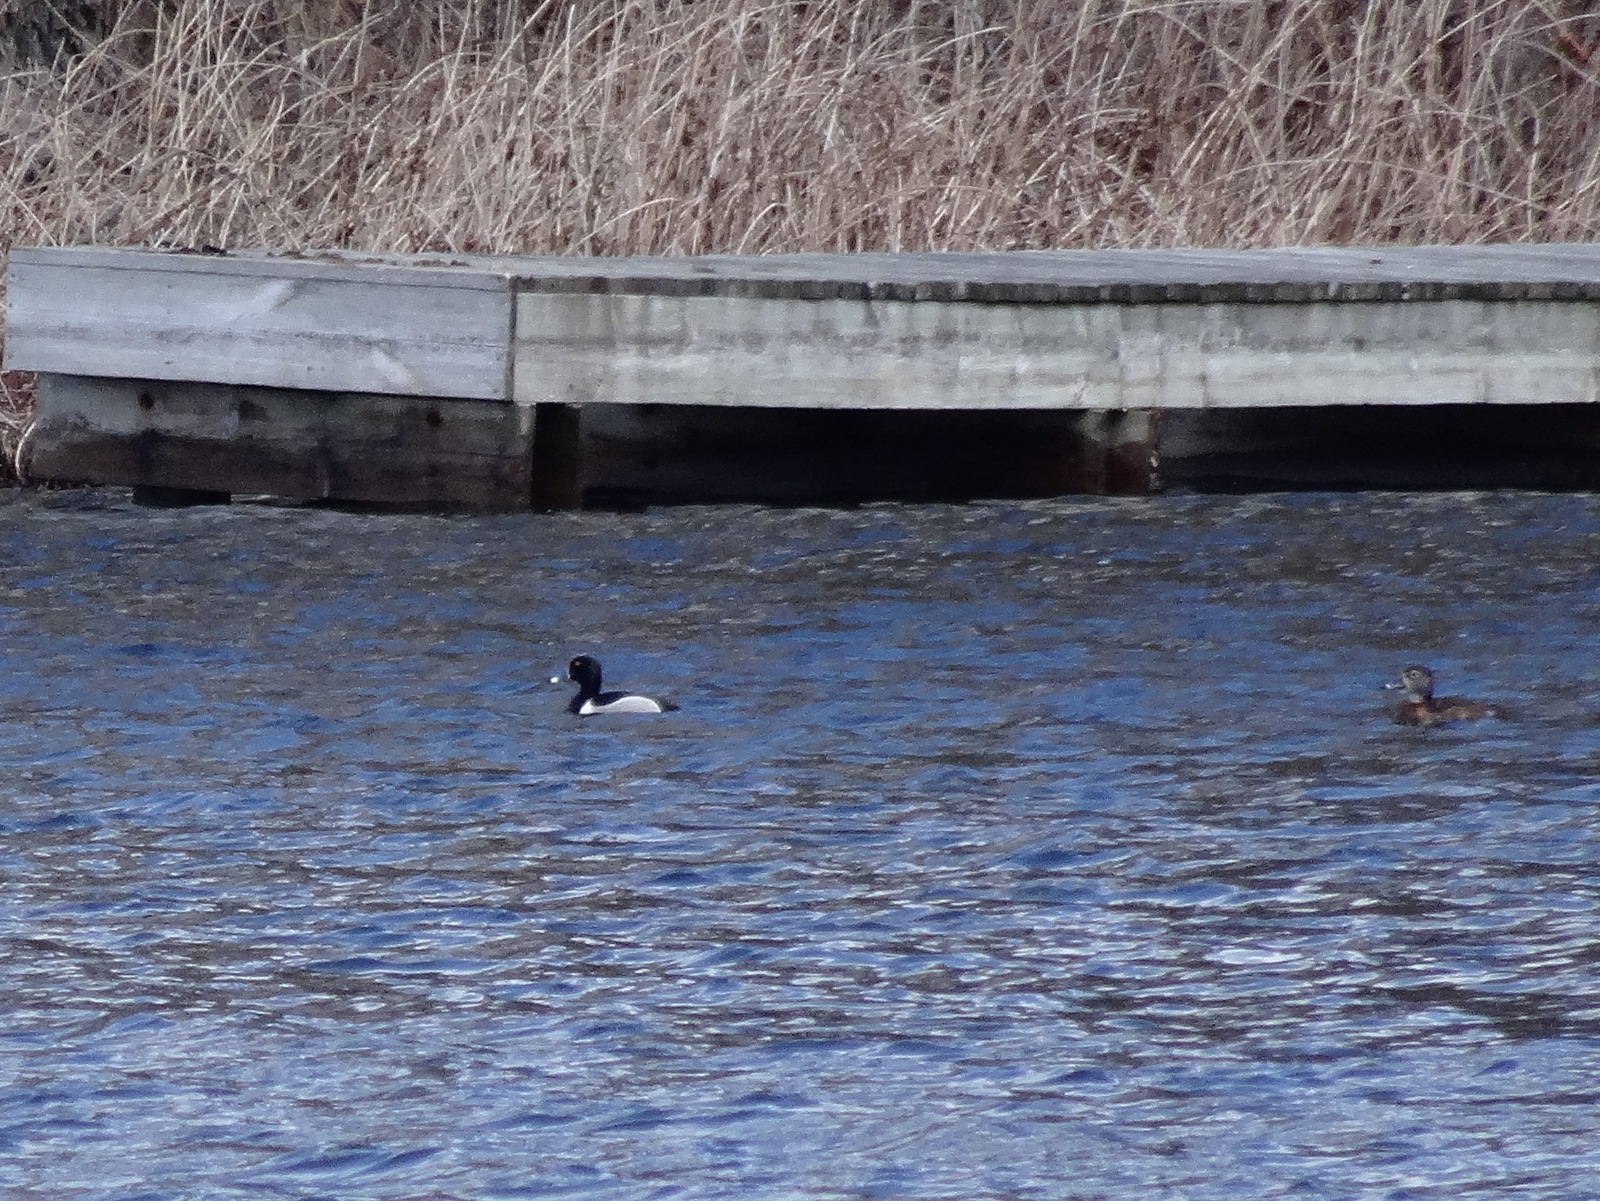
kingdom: Animalia
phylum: Chordata
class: Aves
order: Anseriformes
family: Anatidae
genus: Aythya
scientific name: Aythya collaris
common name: Ring-necked duck
